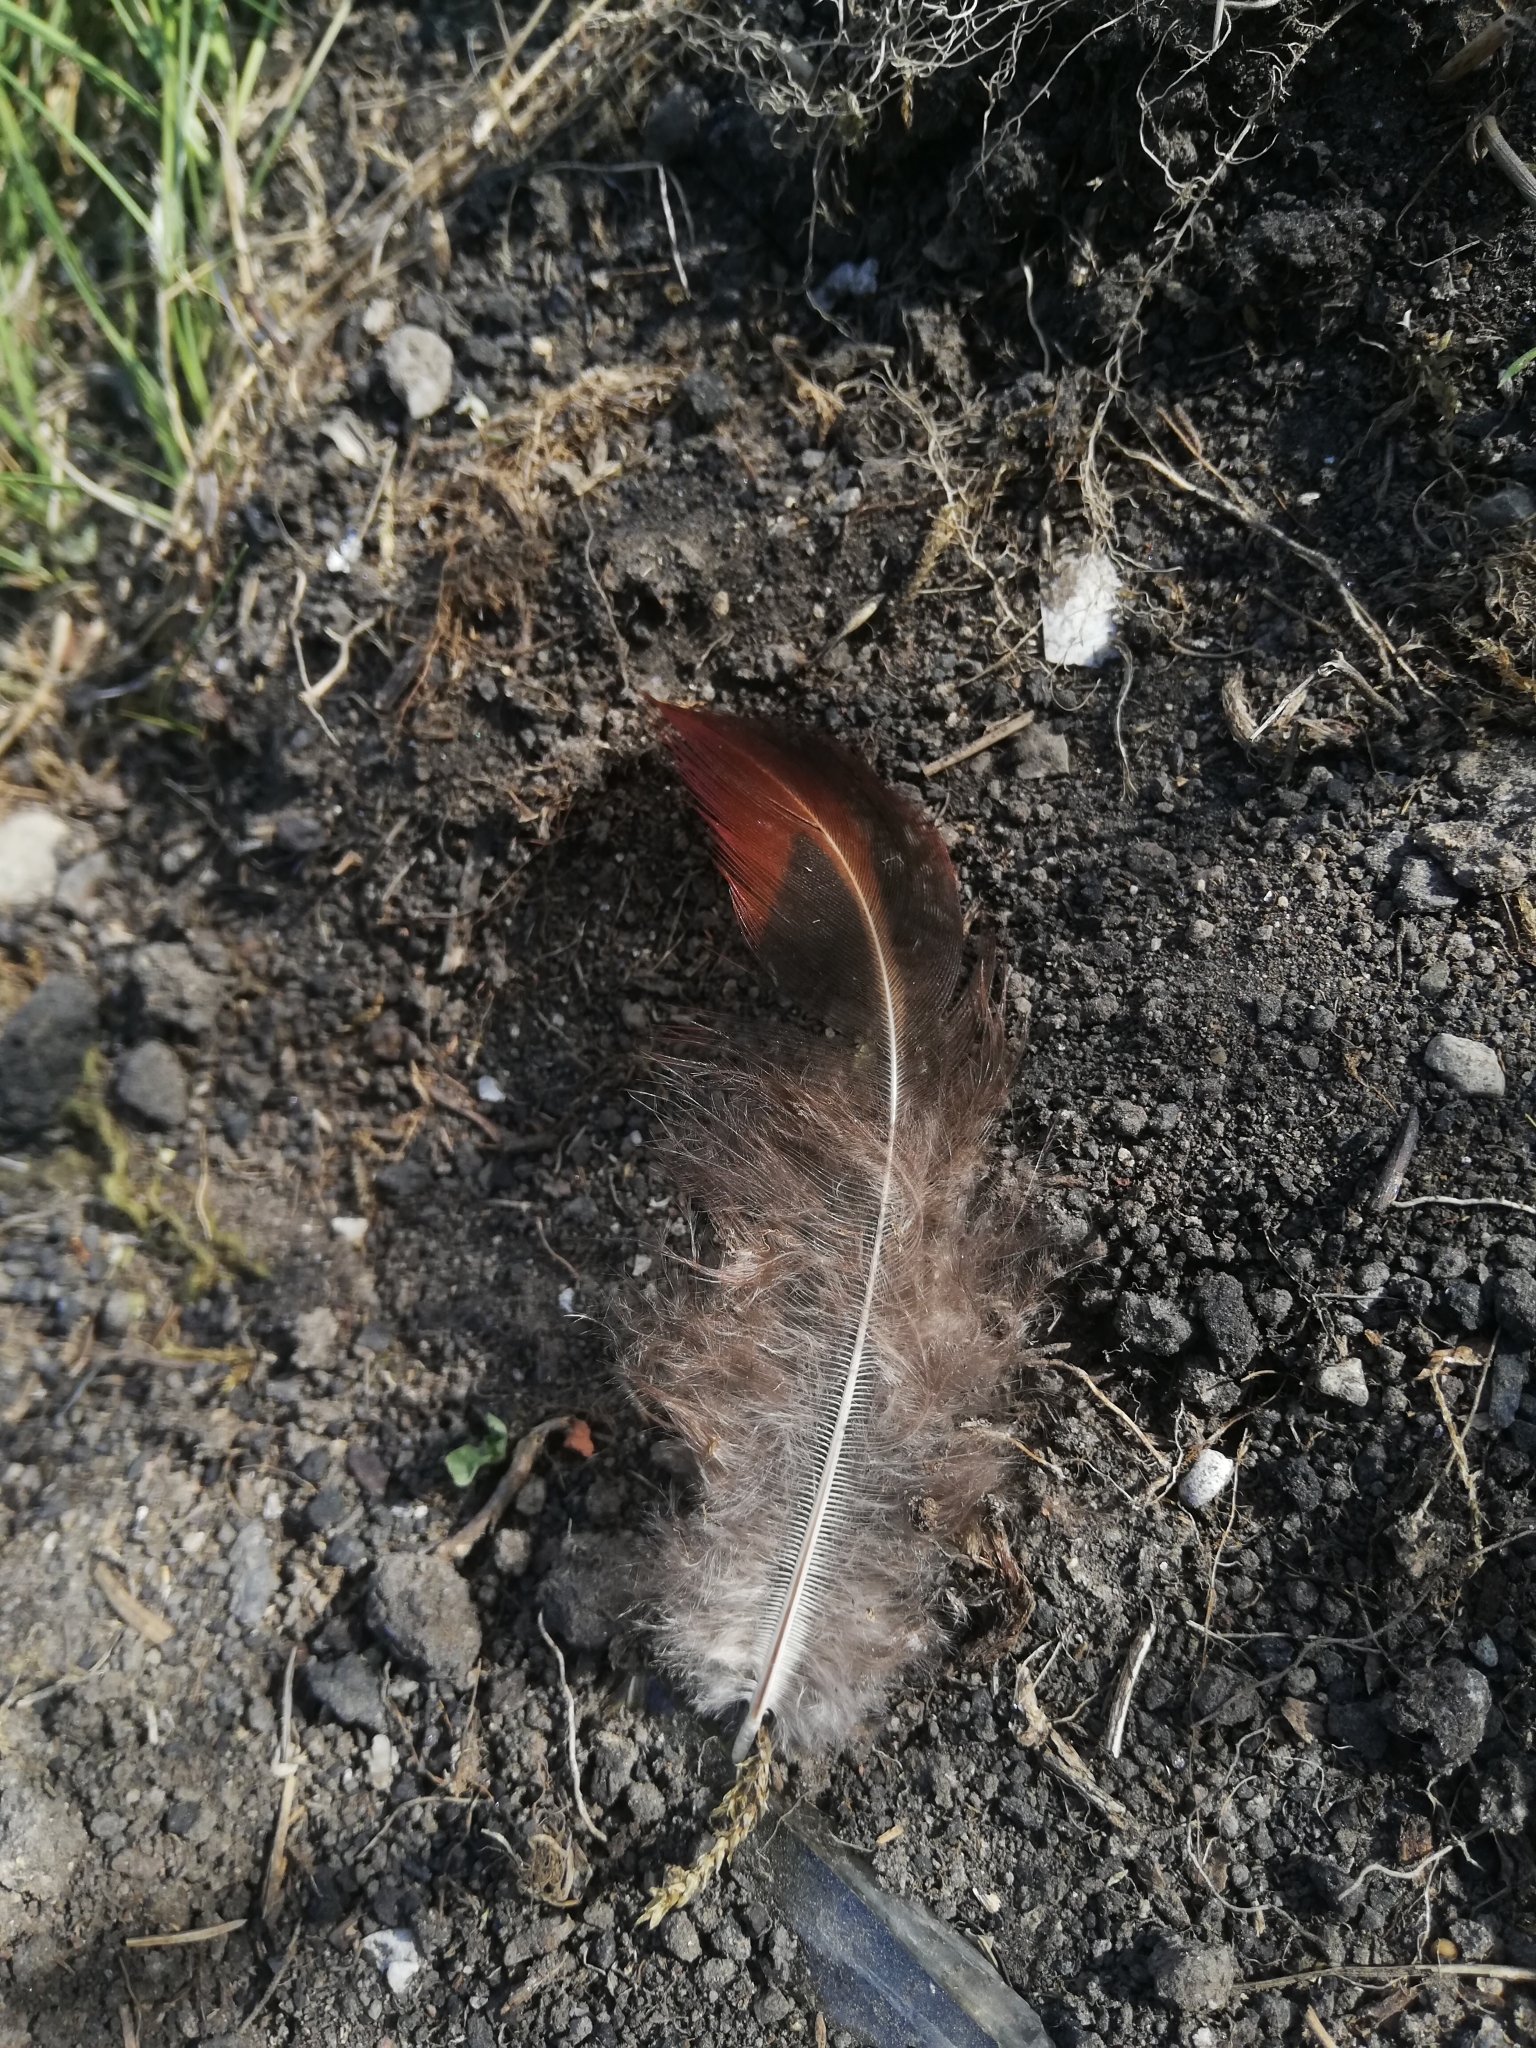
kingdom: Animalia
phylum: Chordata
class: Aves
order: Galliformes
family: Phasianidae
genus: Phasianus
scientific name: Phasianus colchicus
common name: Common pheasant
